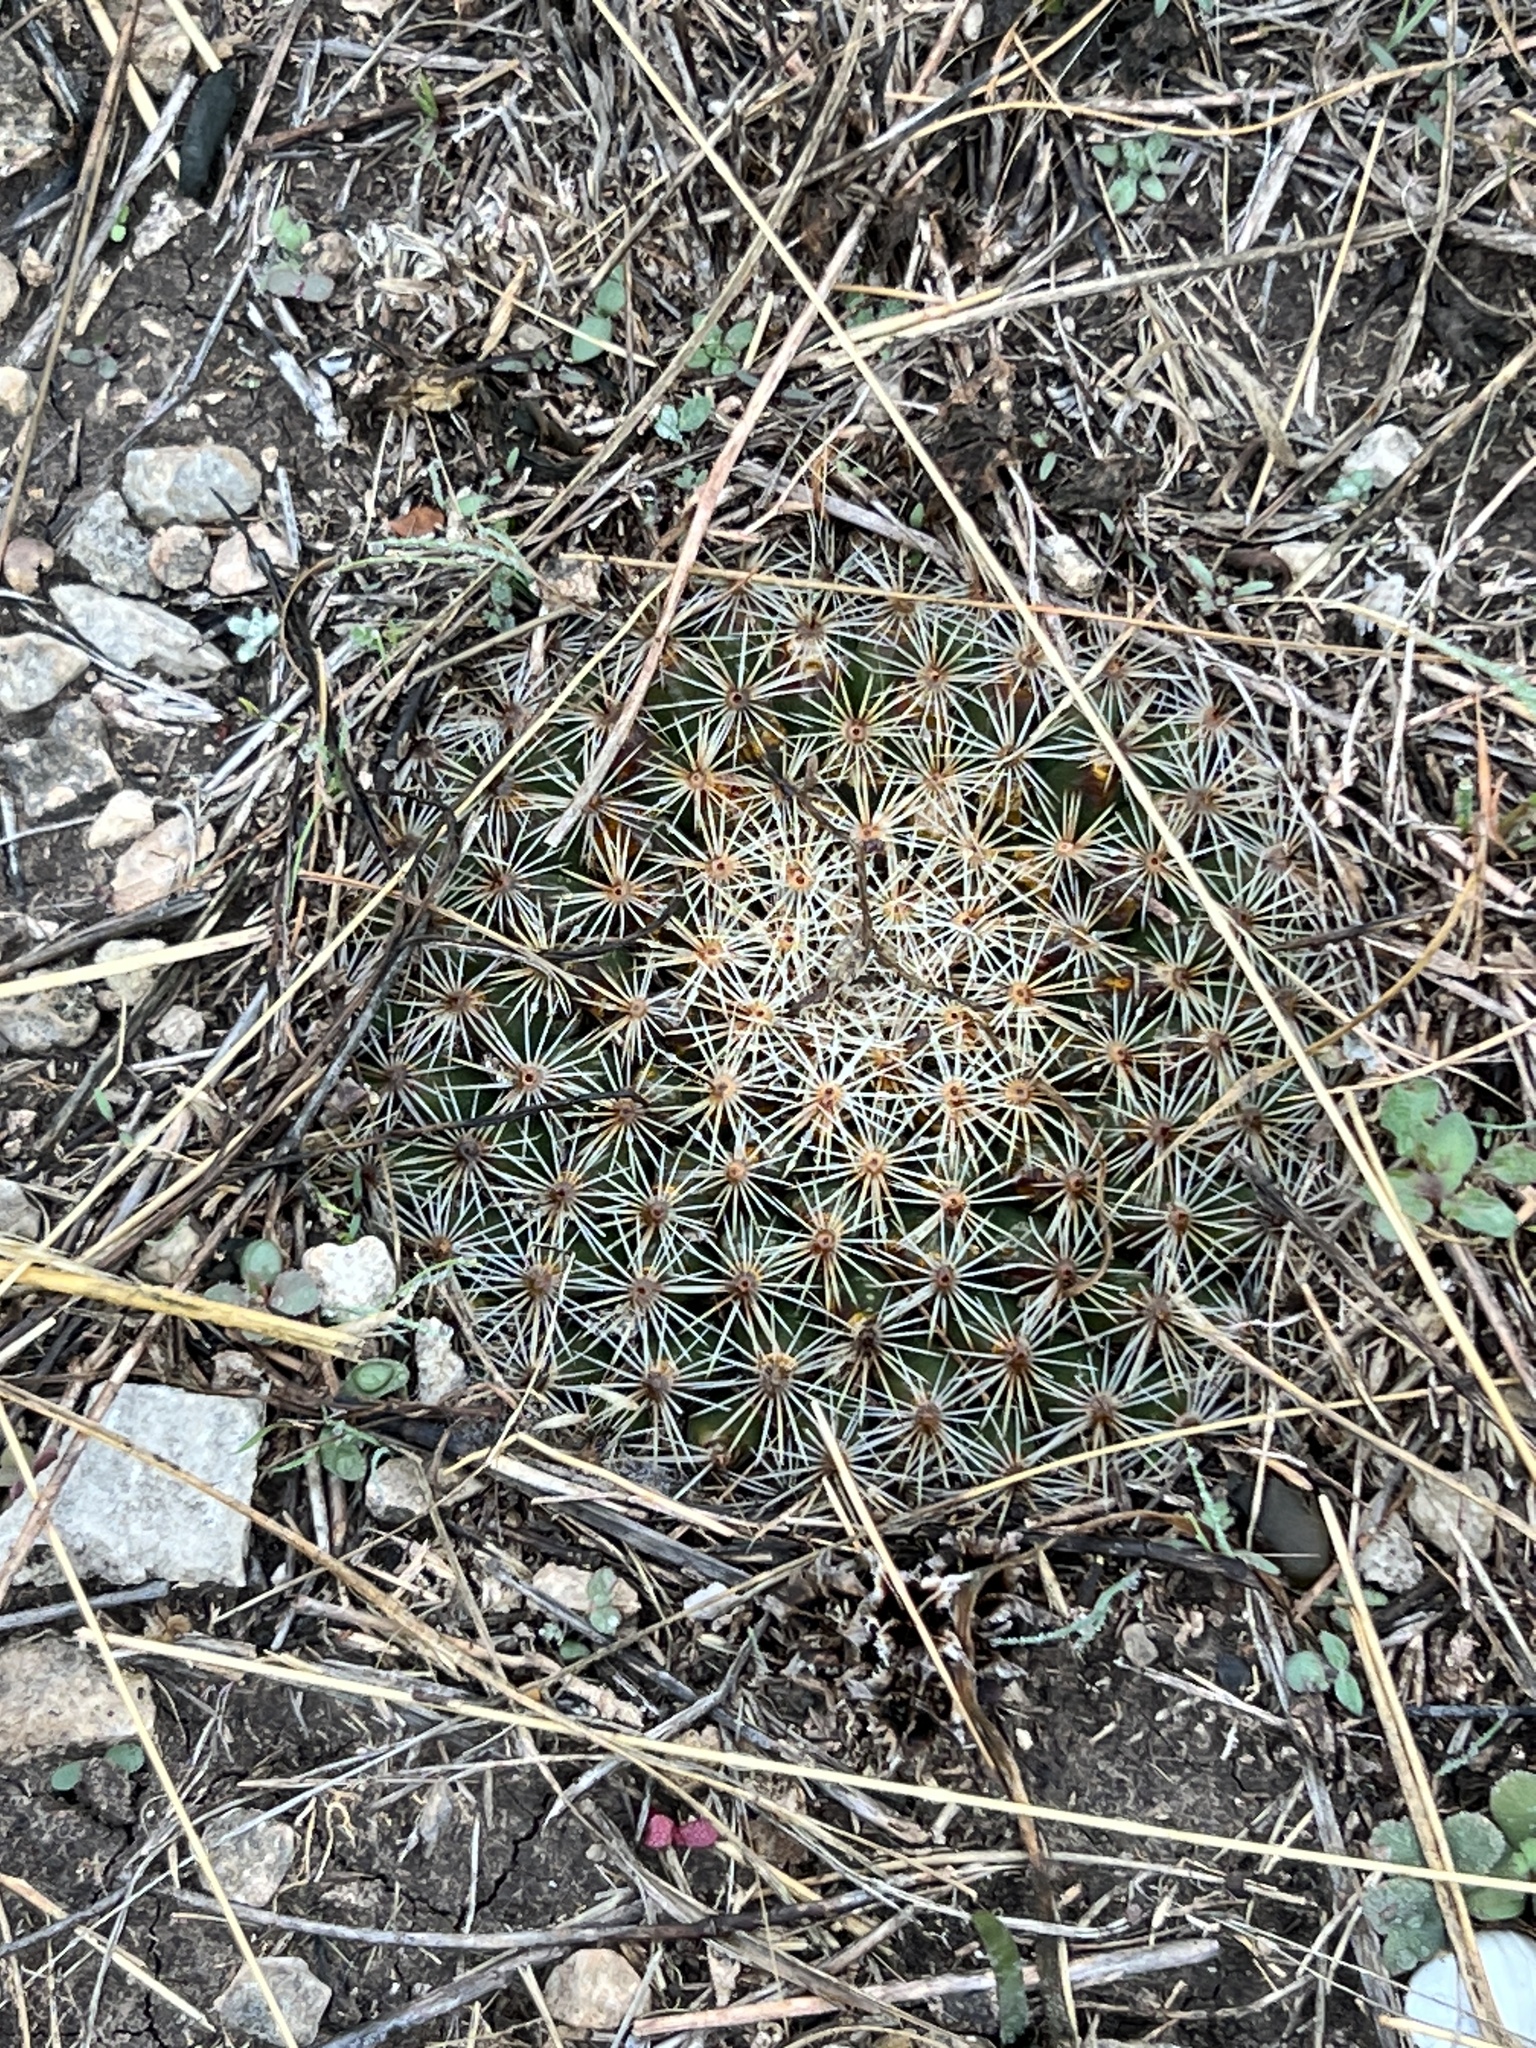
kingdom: Plantae
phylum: Tracheophyta
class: Magnoliopsida
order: Caryophyllales
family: Cactaceae
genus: Mammillaria
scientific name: Mammillaria heyderi
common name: Little nipple cactus
